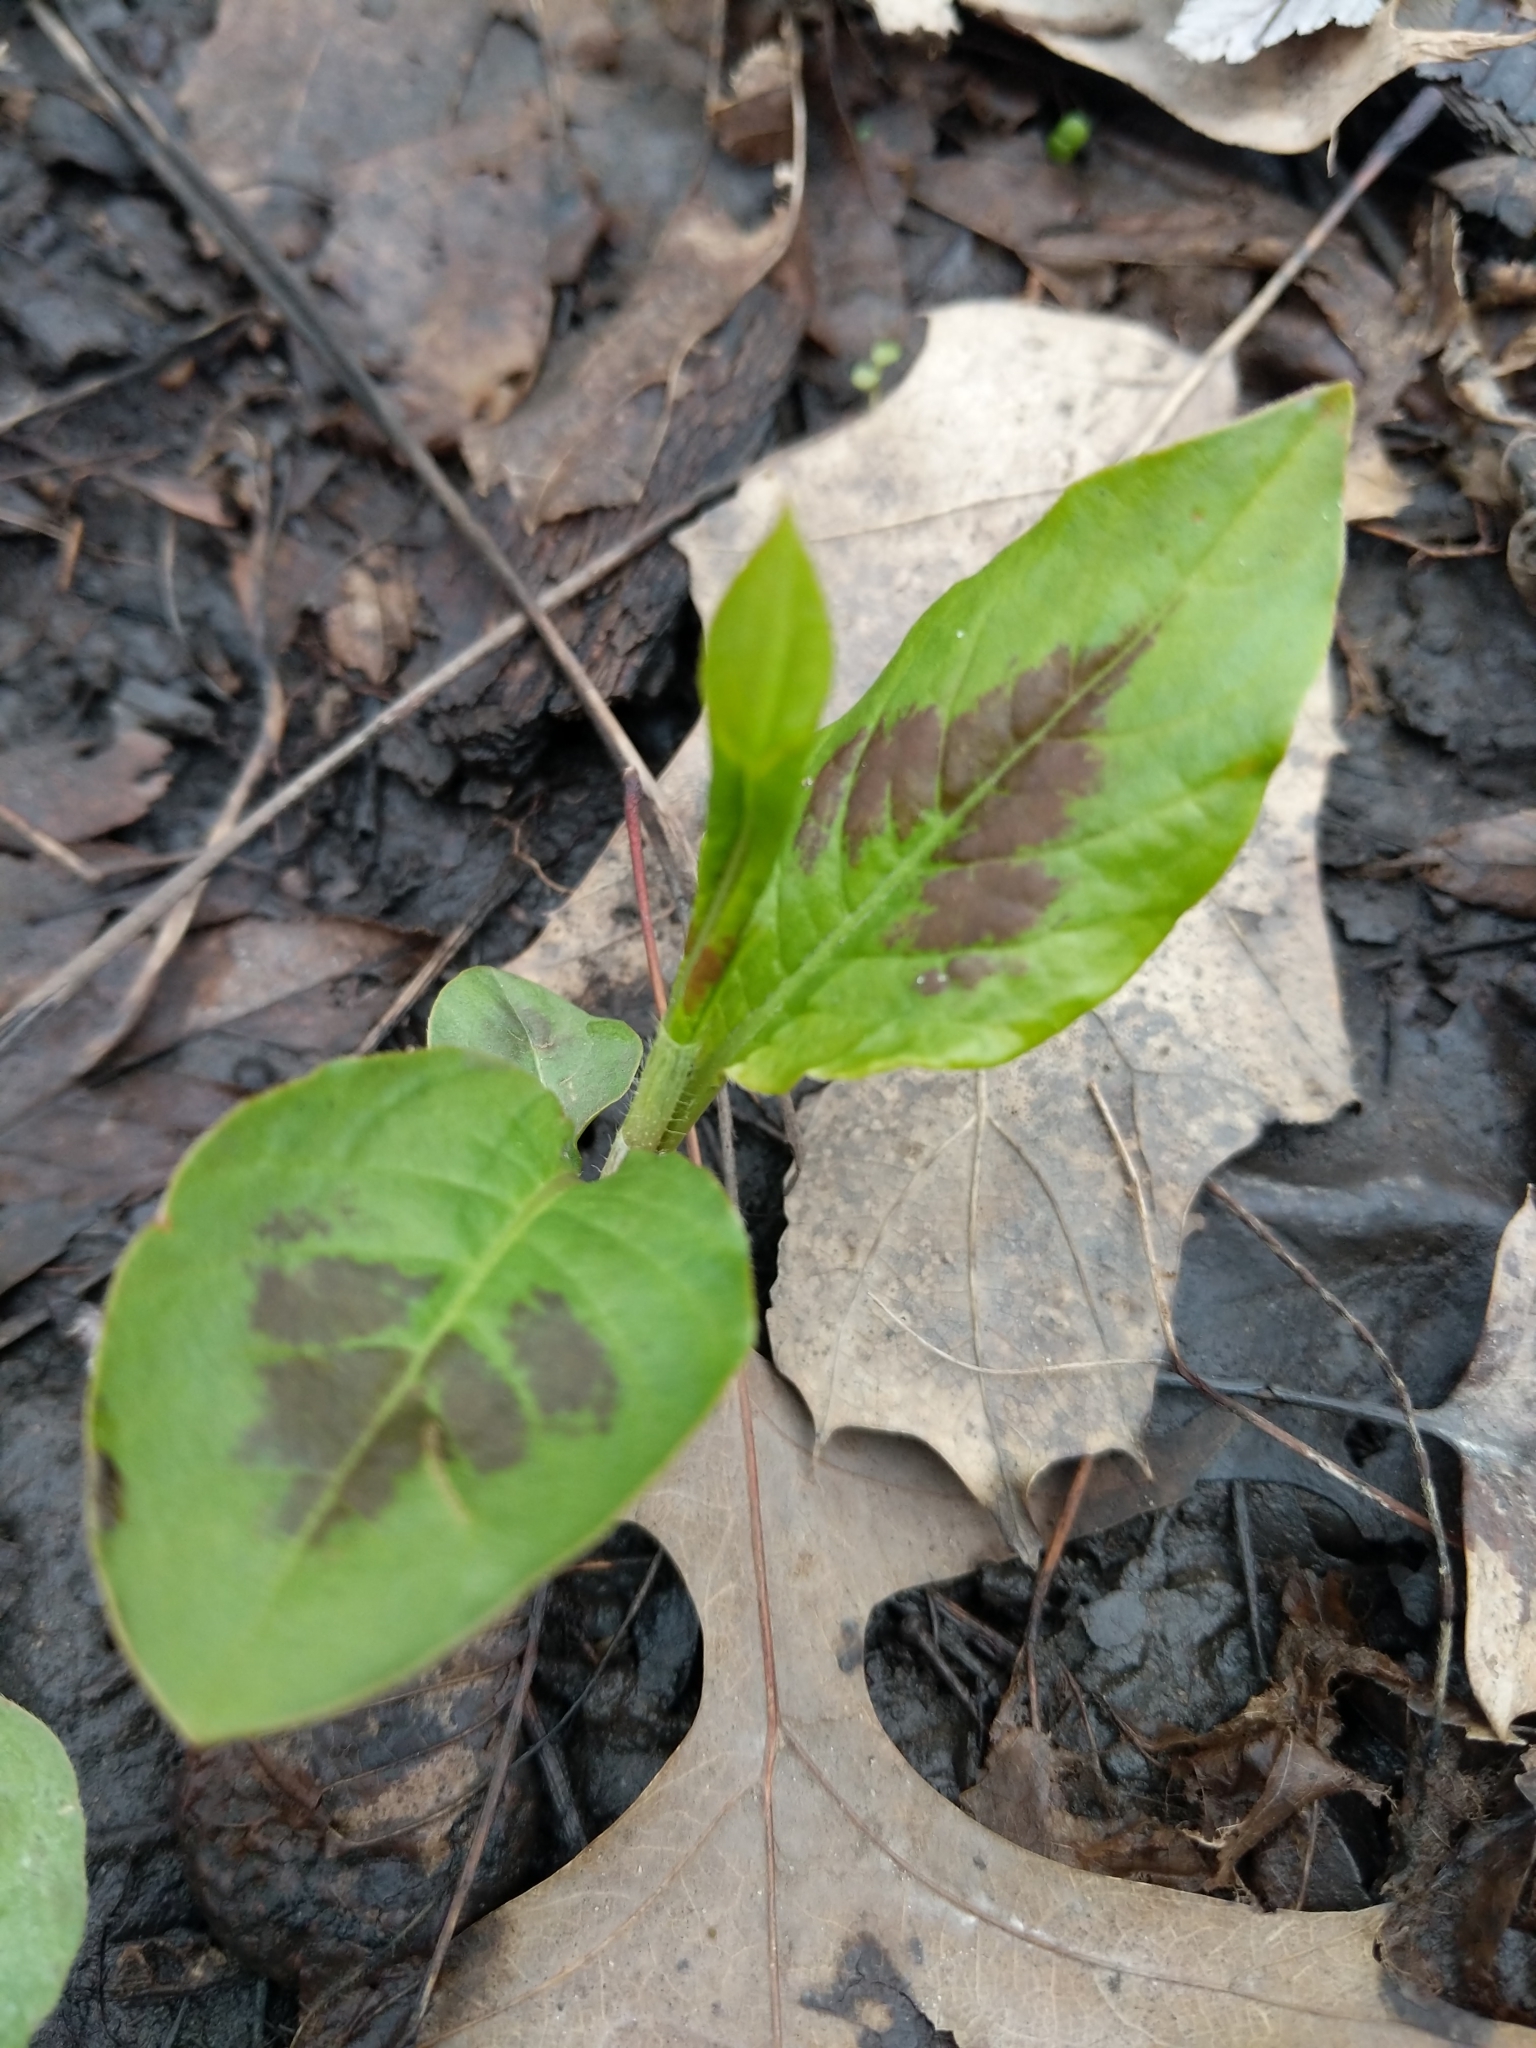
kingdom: Plantae
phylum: Tracheophyta
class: Magnoliopsida
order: Caryophyllales
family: Polygonaceae
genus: Persicaria
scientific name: Persicaria virginiana
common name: Jumpseed
